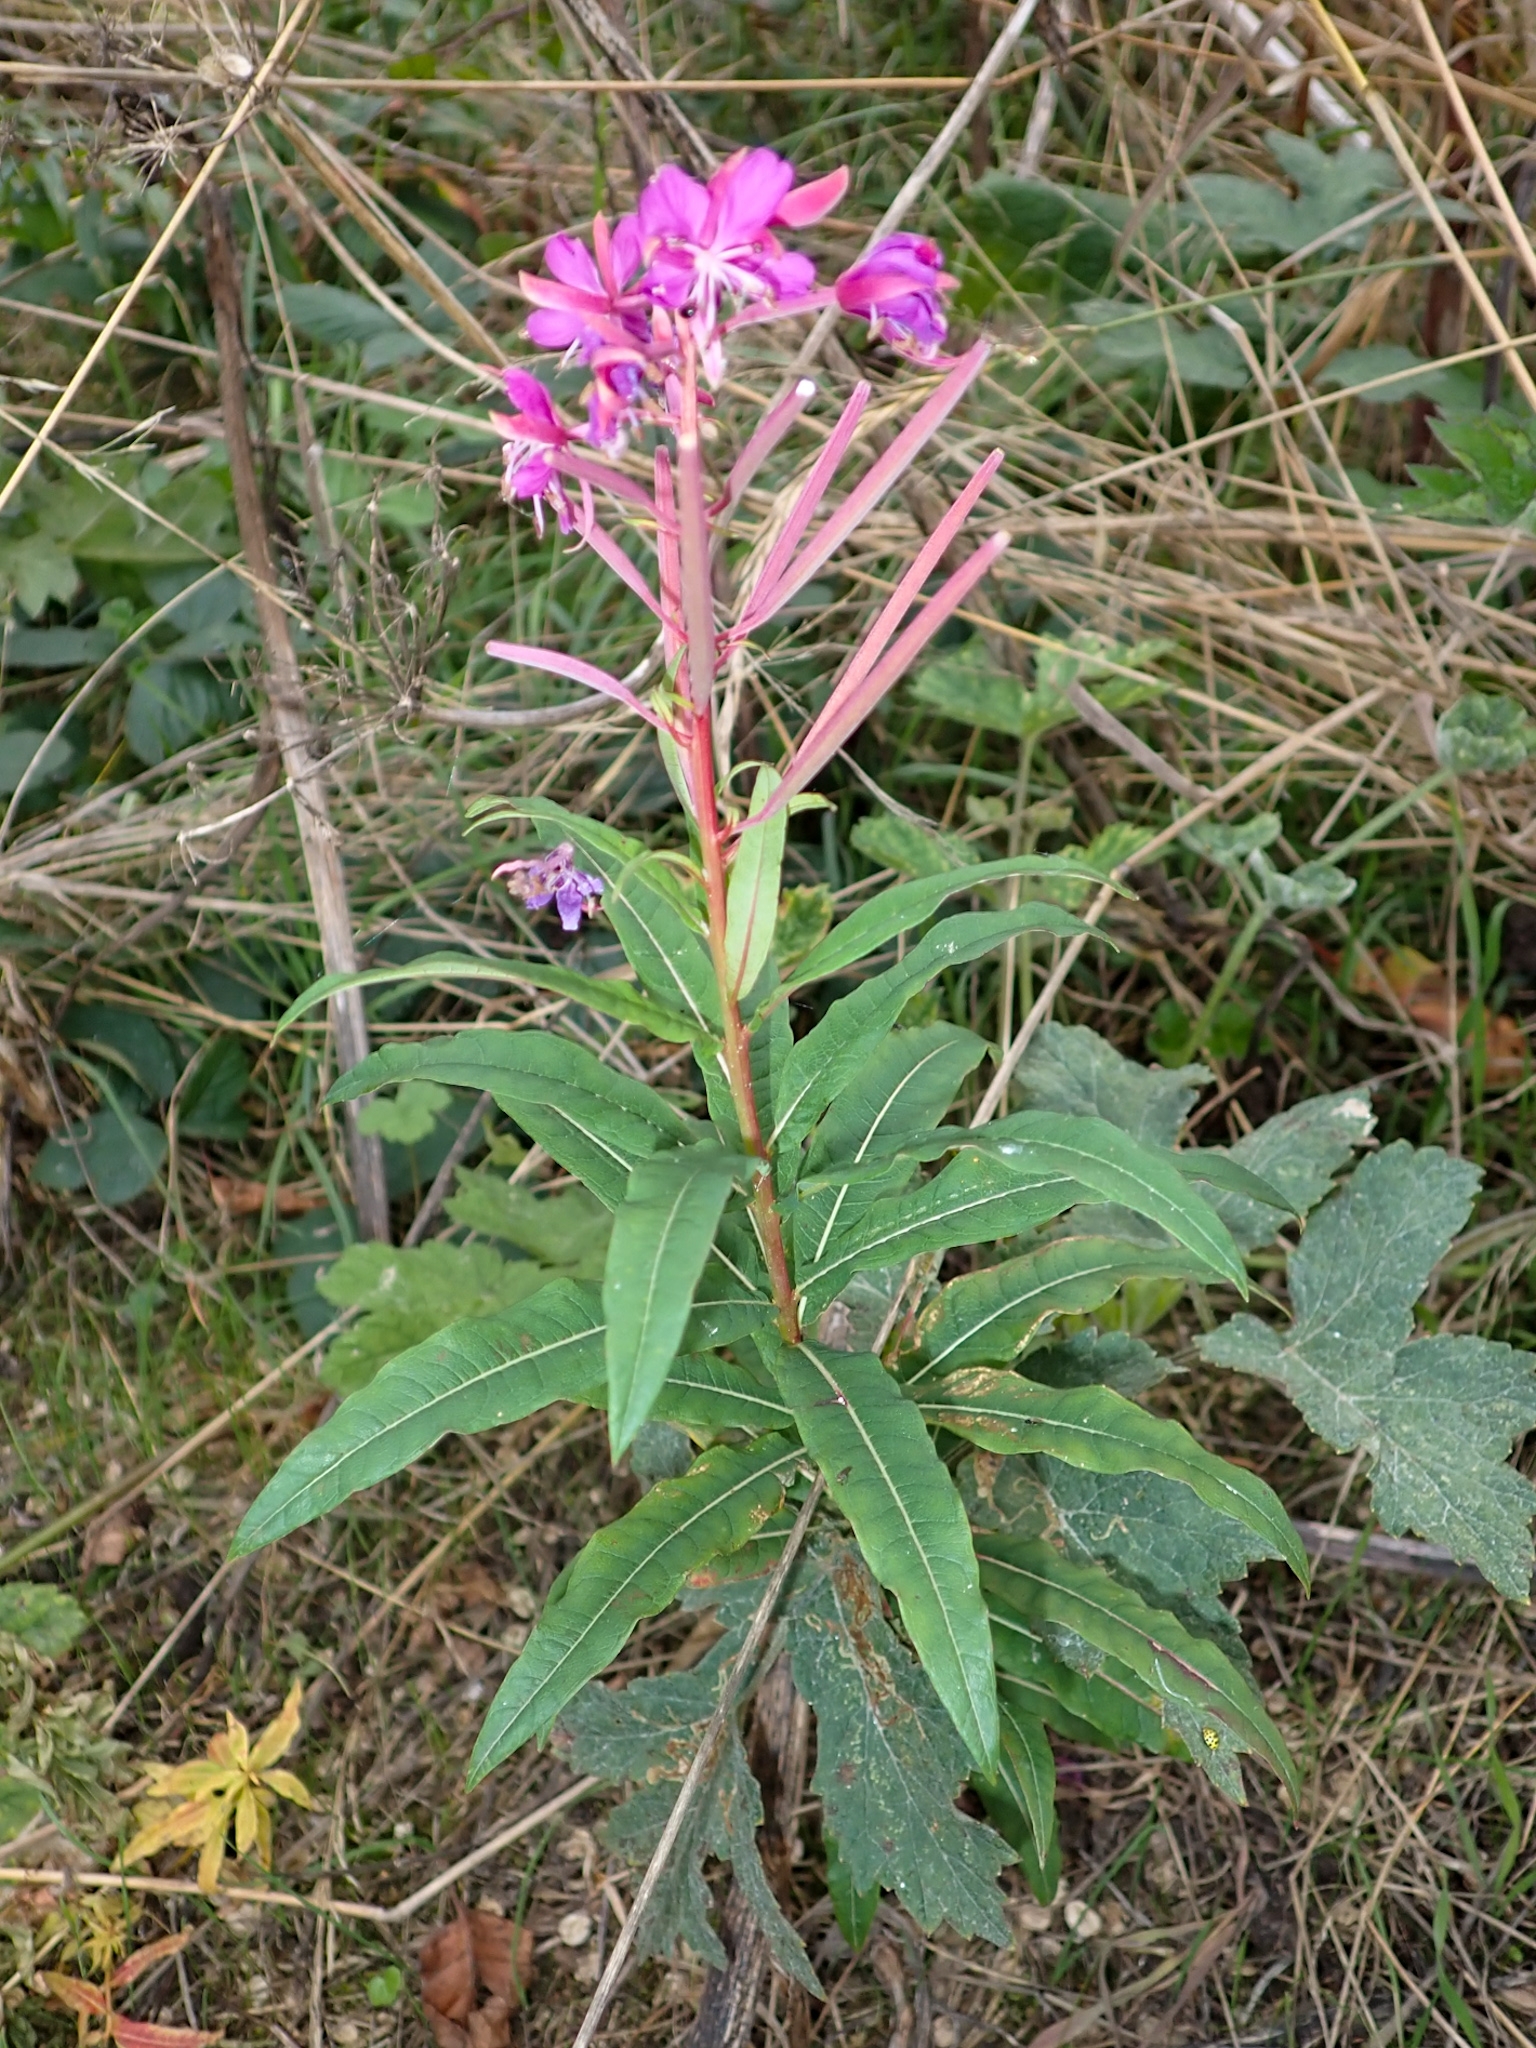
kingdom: Plantae
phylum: Tracheophyta
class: Magnoliopsida
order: Myrtales
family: Onagraceae
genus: Chamaenerion
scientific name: Chamaenerion angustifolium
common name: Fireweed
